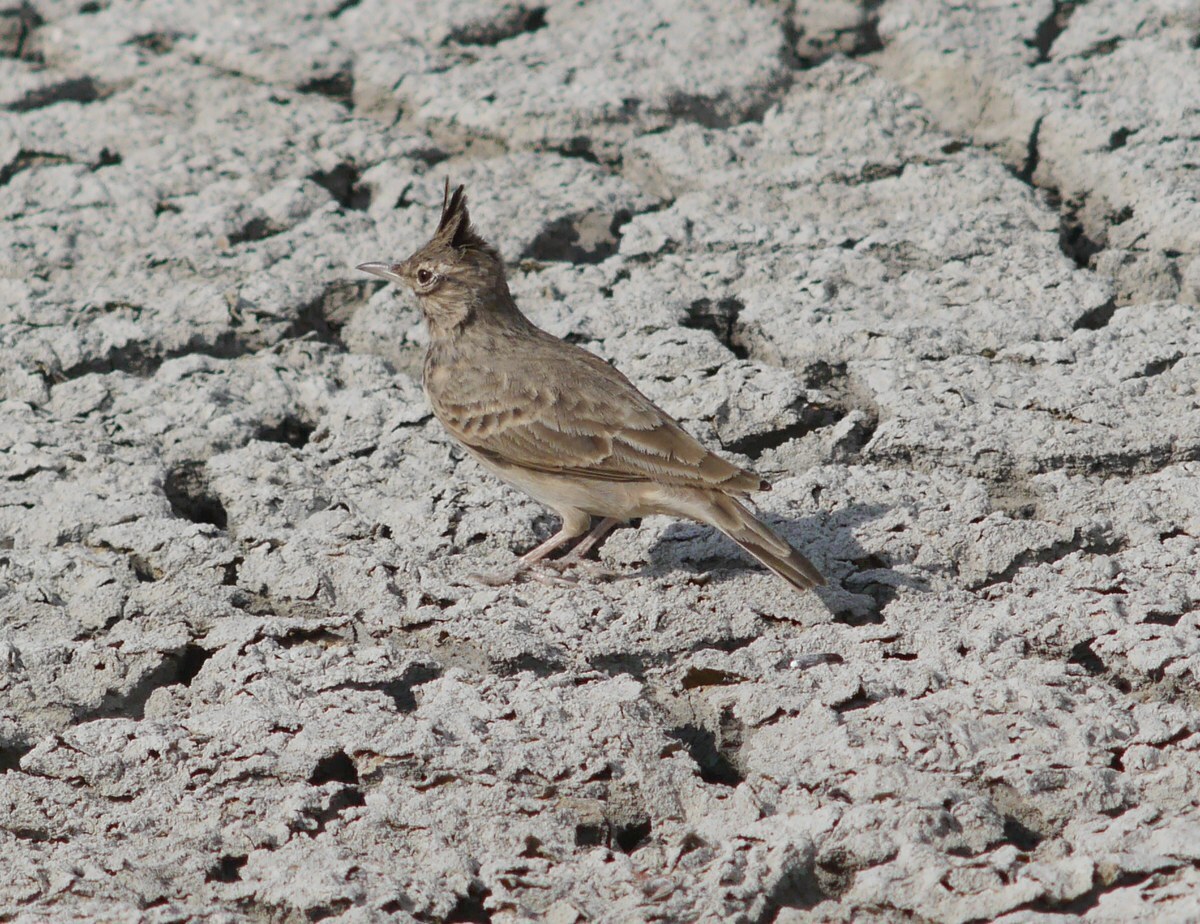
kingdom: Animalia
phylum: Chordata
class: Aves
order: Passeriformes
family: Alaudidae
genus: Galerida
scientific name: Galerida cristata
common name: Crested lark
